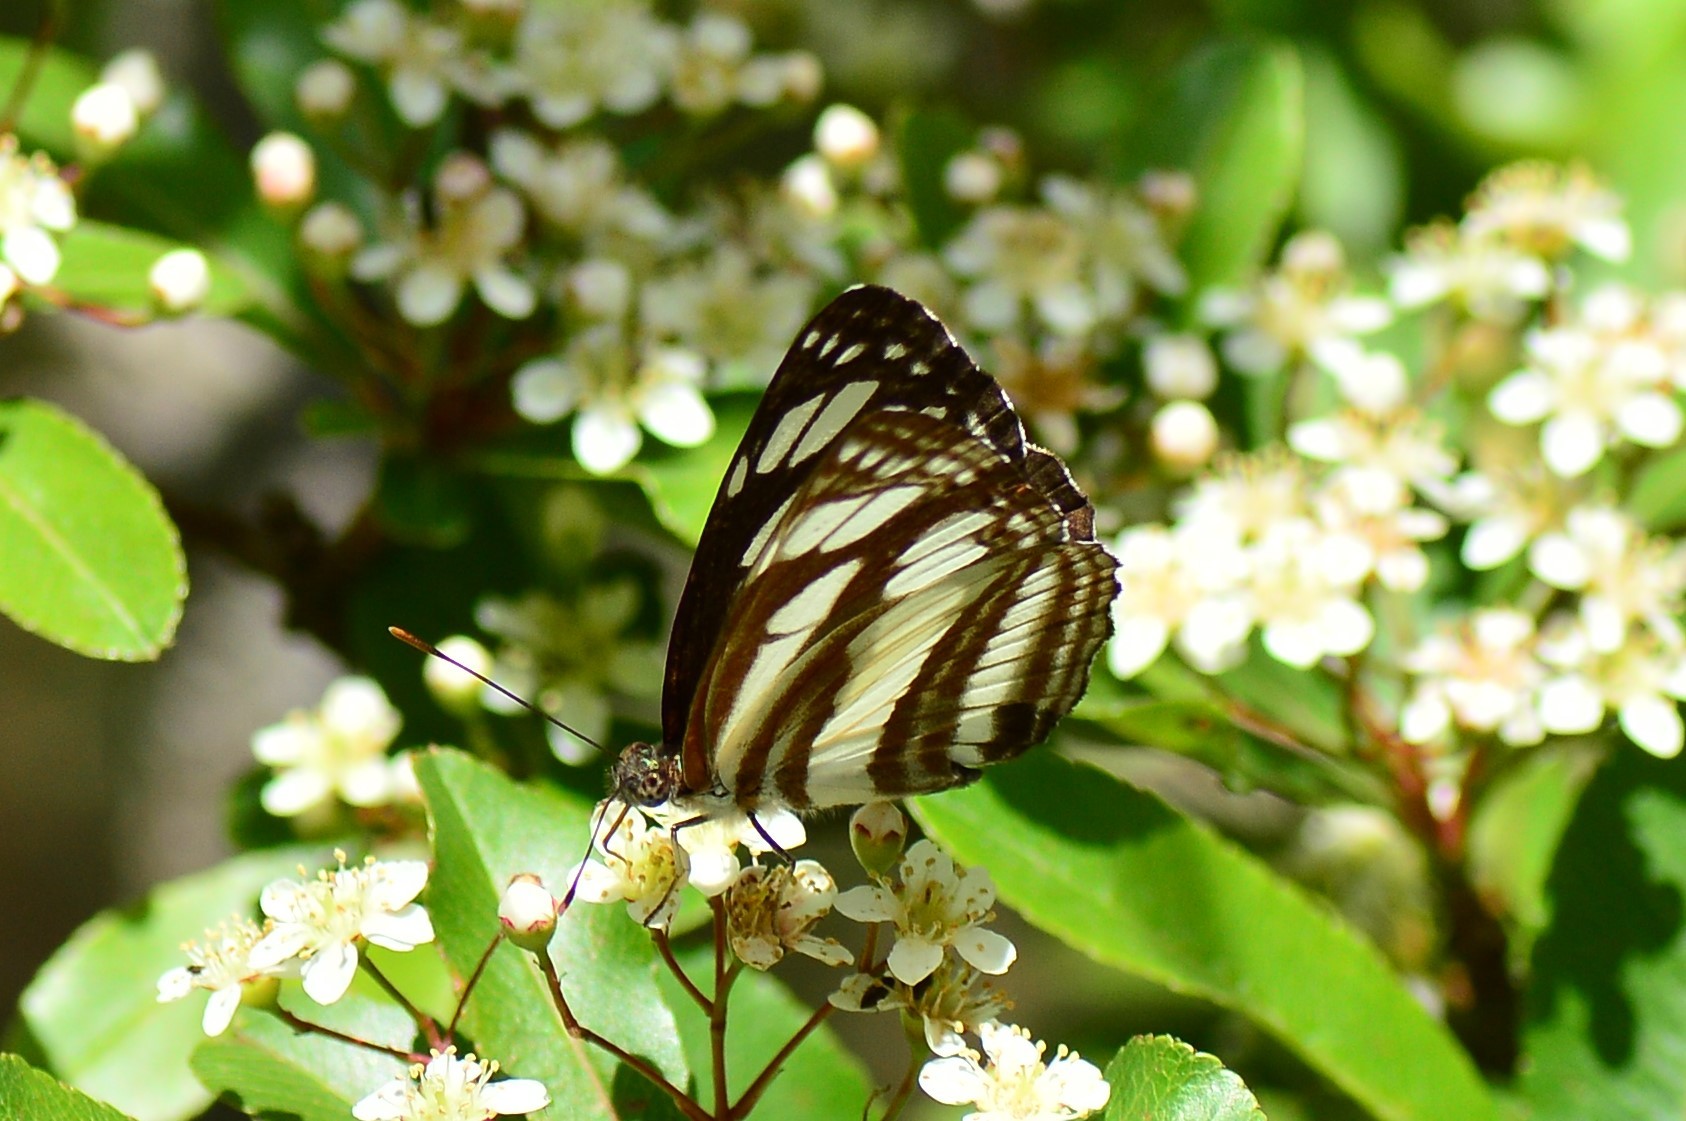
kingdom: Animalia
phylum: Arthropoda
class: Insecta
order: Lepidoptera
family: Nymphalidae
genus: Neptis
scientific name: Neptis soma
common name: Cream-spotted sailor
